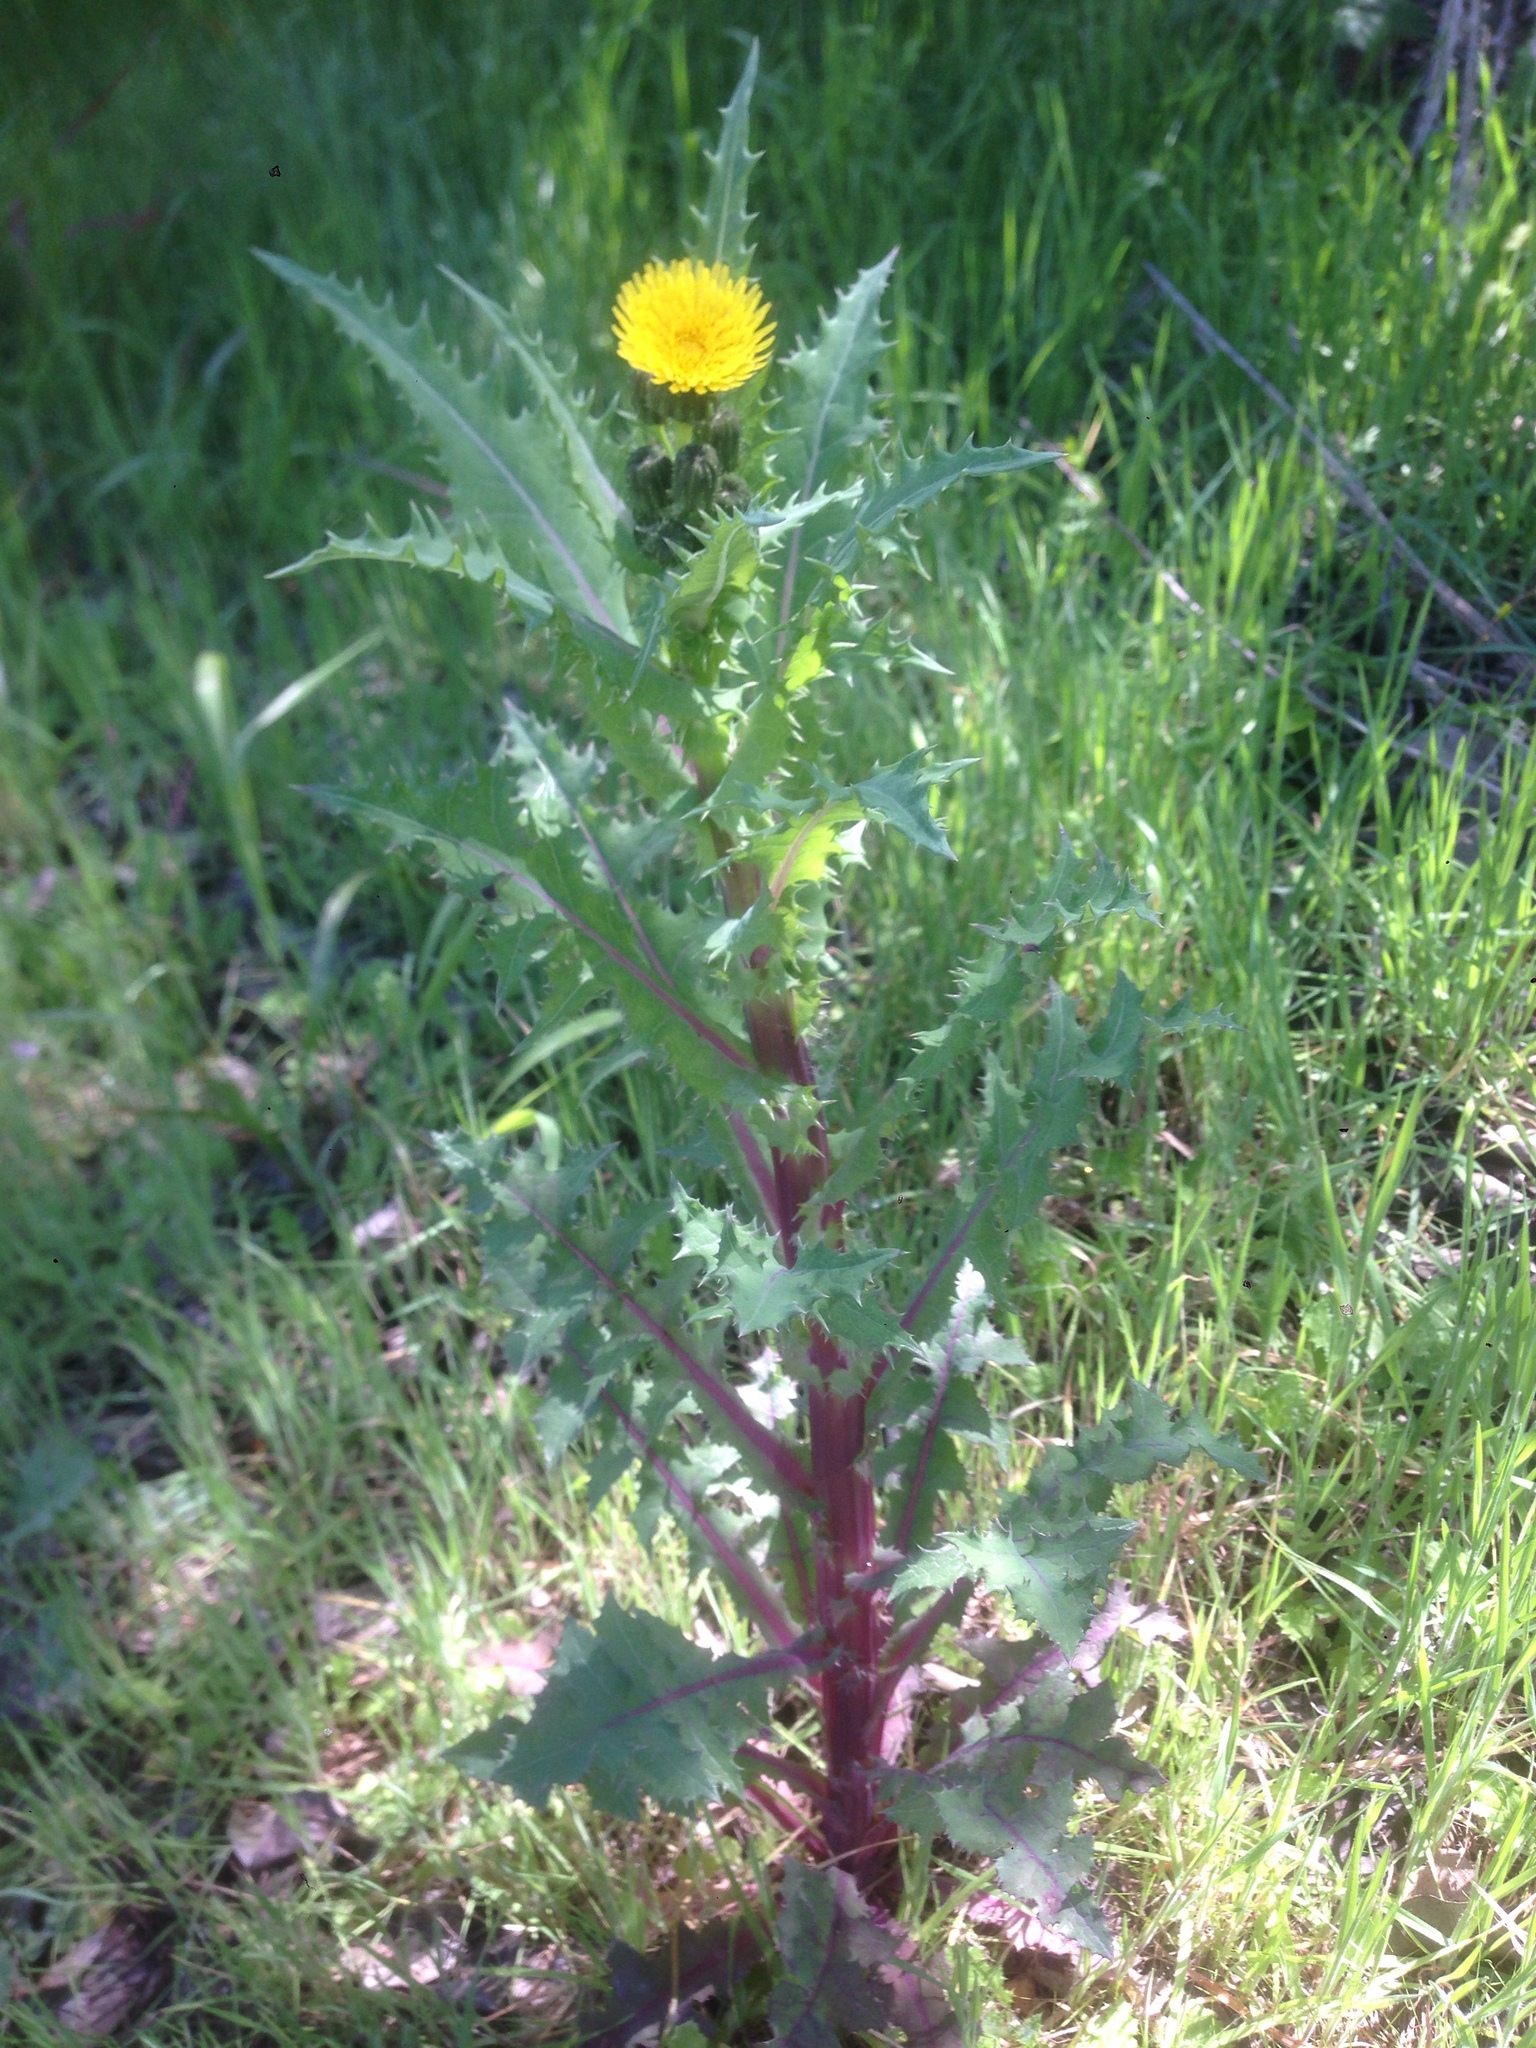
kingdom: Plantae
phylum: Tracheophyta
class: Magnoliopsida
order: Asterales
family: Asteraceae
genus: Sonchus
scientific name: Sonchus asper
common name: Prickly sow-thistle
